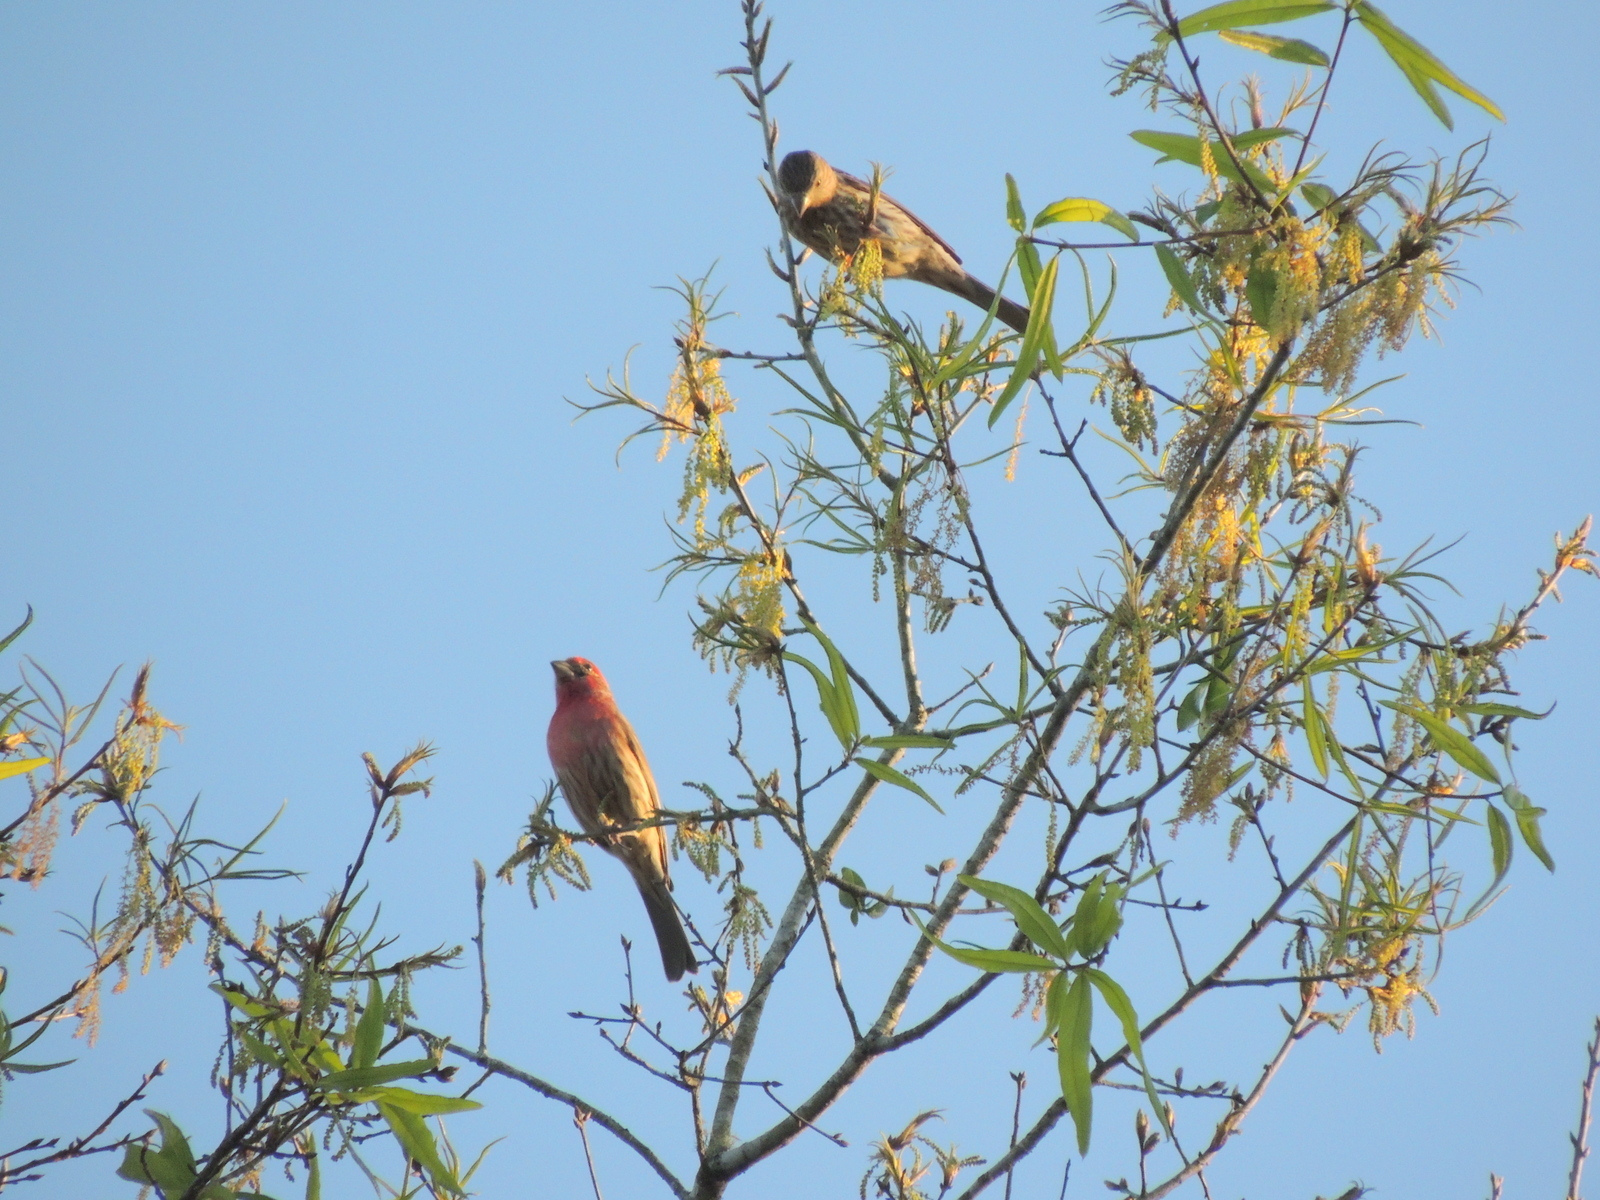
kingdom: Animalia
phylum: Chordata
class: Aves
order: Passeriformes
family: Fringillidae
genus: Haemorhous
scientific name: Haemorhous mexicanus
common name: House finch
